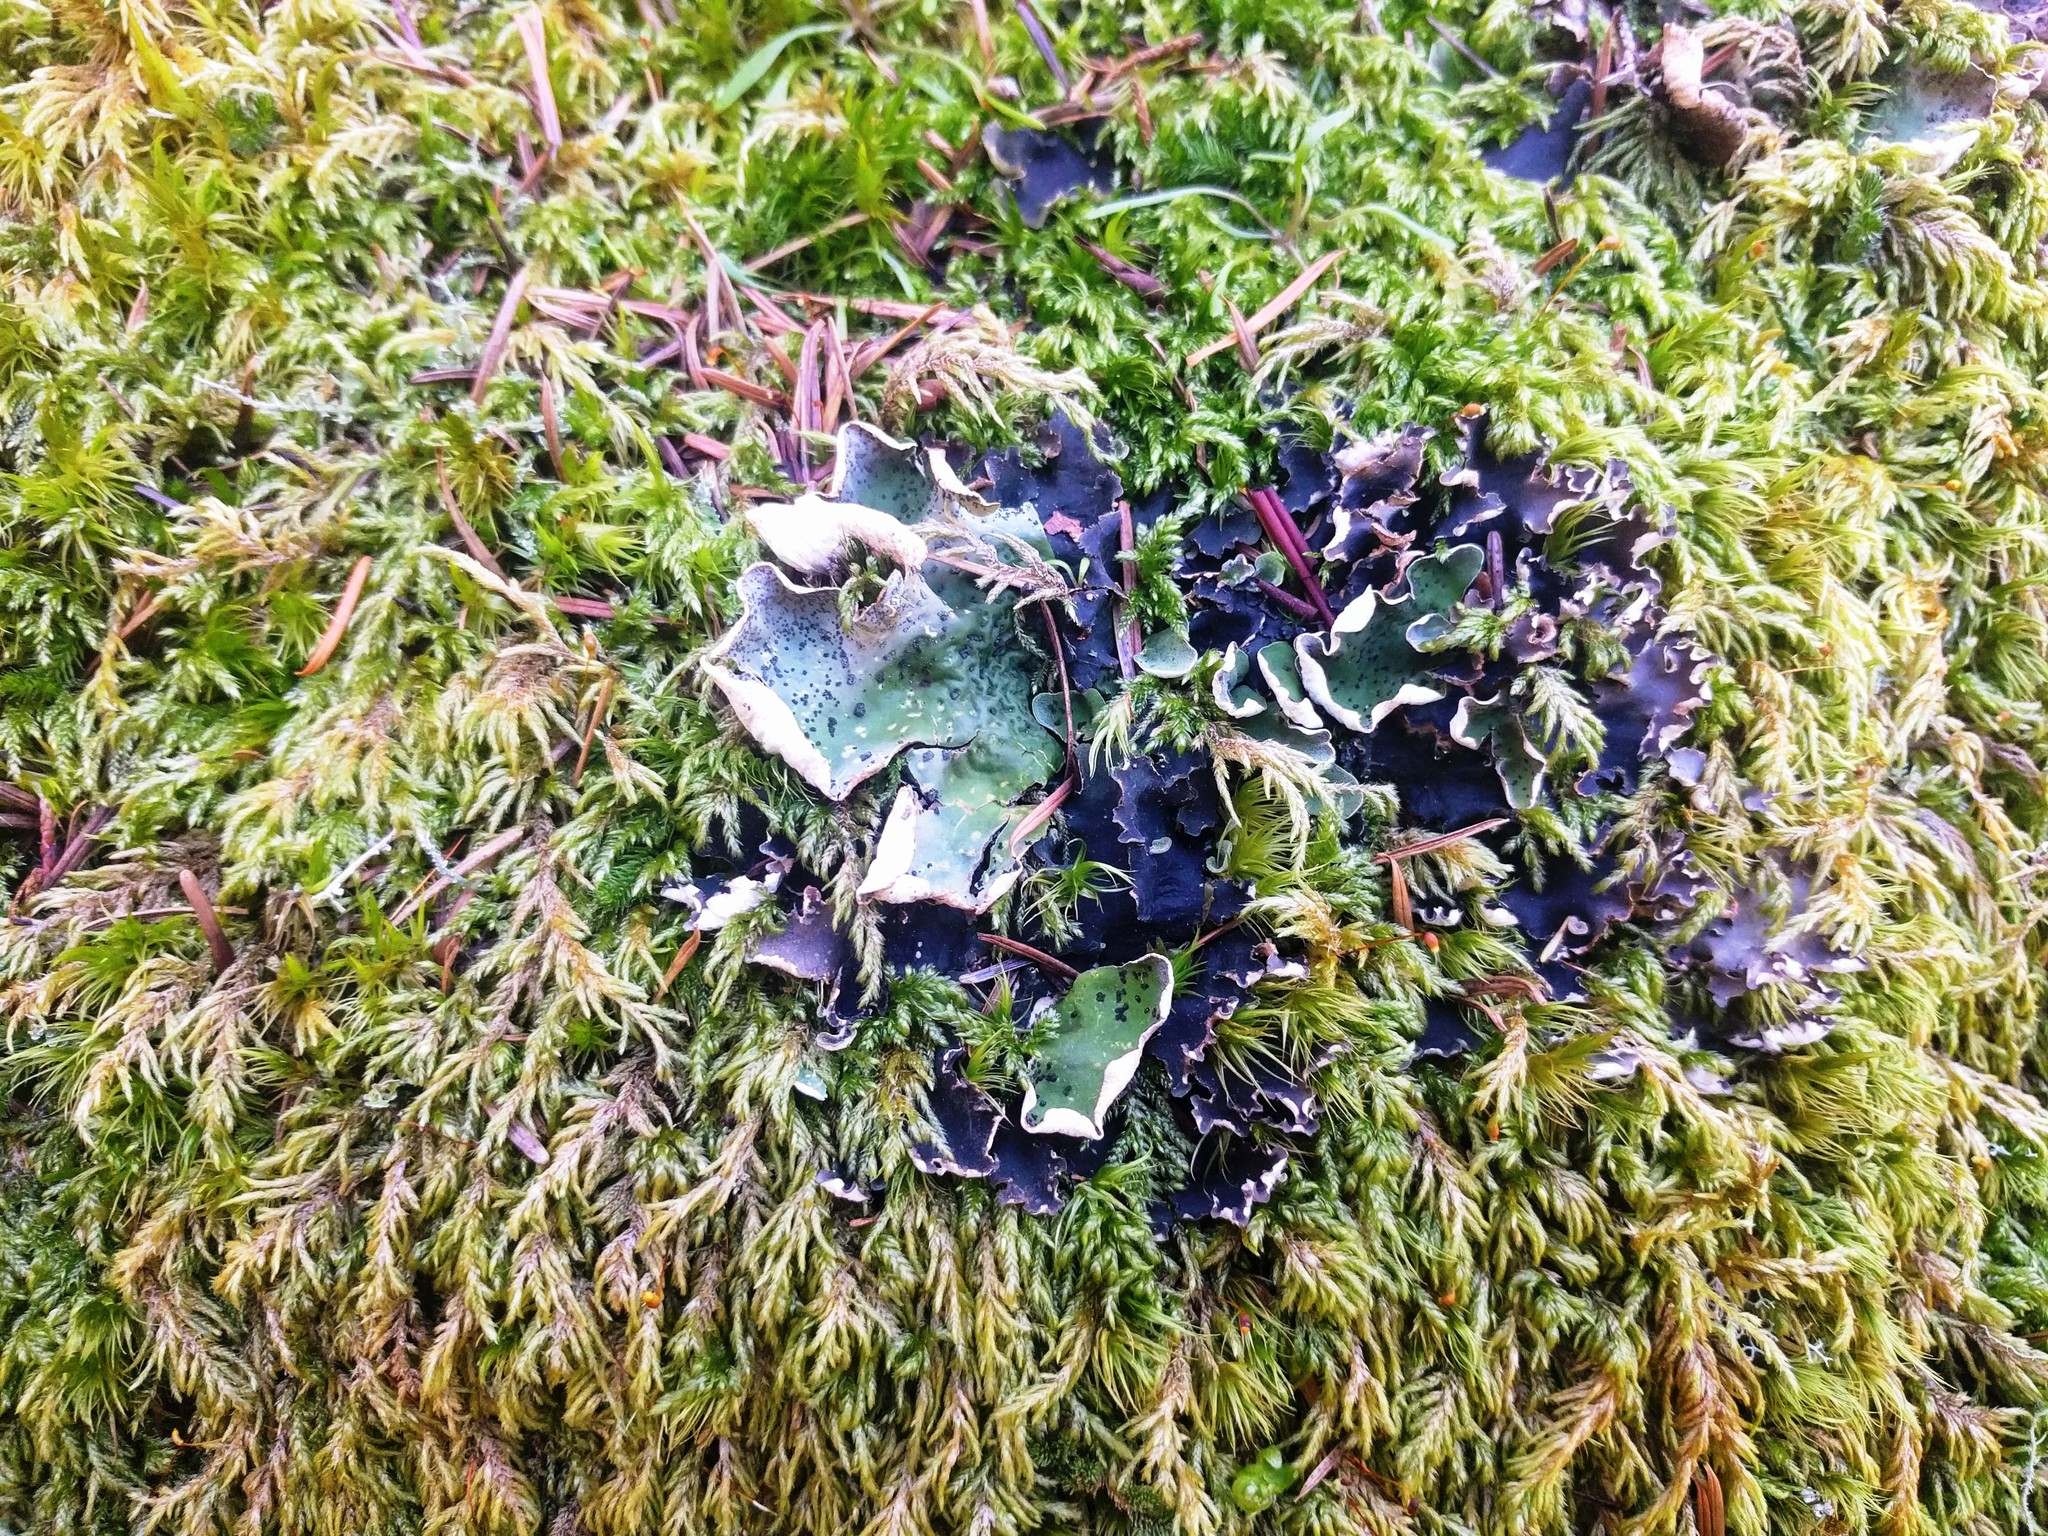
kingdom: Fungi
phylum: Ascomycota
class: Lecanoromycetes
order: Peltigerales
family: Peltigeraceae
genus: Peltigera
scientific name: Peltigera britannica
